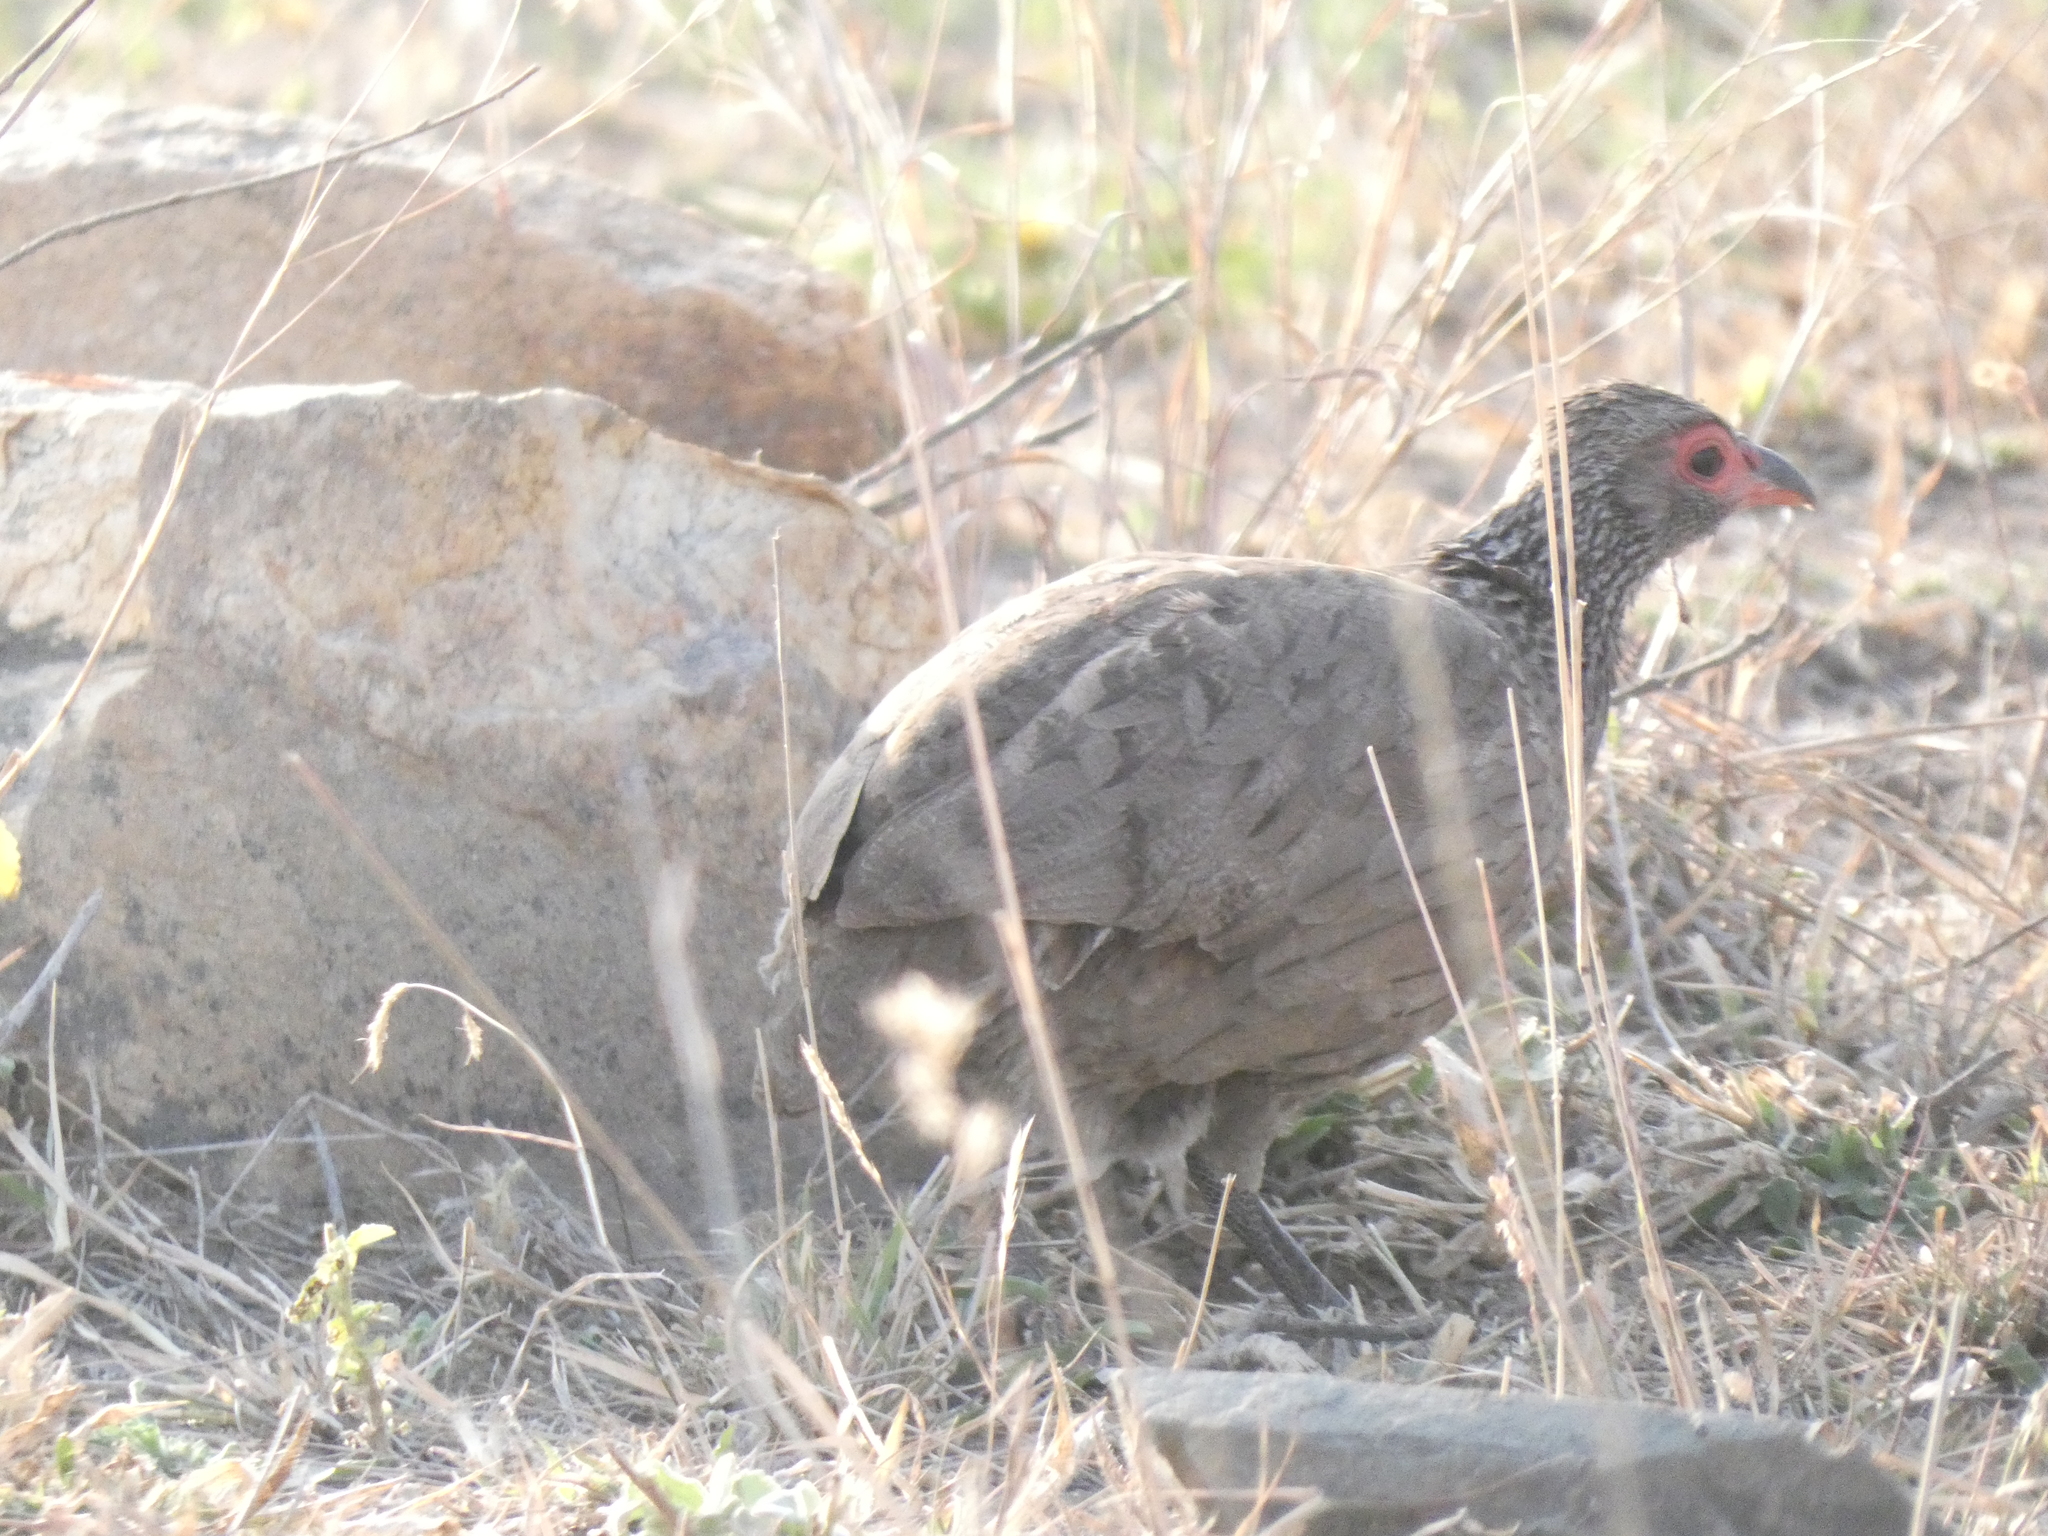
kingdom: Animalia
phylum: Chordata
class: Aves
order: Galliformes
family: Phasianidae
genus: Pternistis
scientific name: Pternistis swainsonii
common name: Swainson's spurfowl
